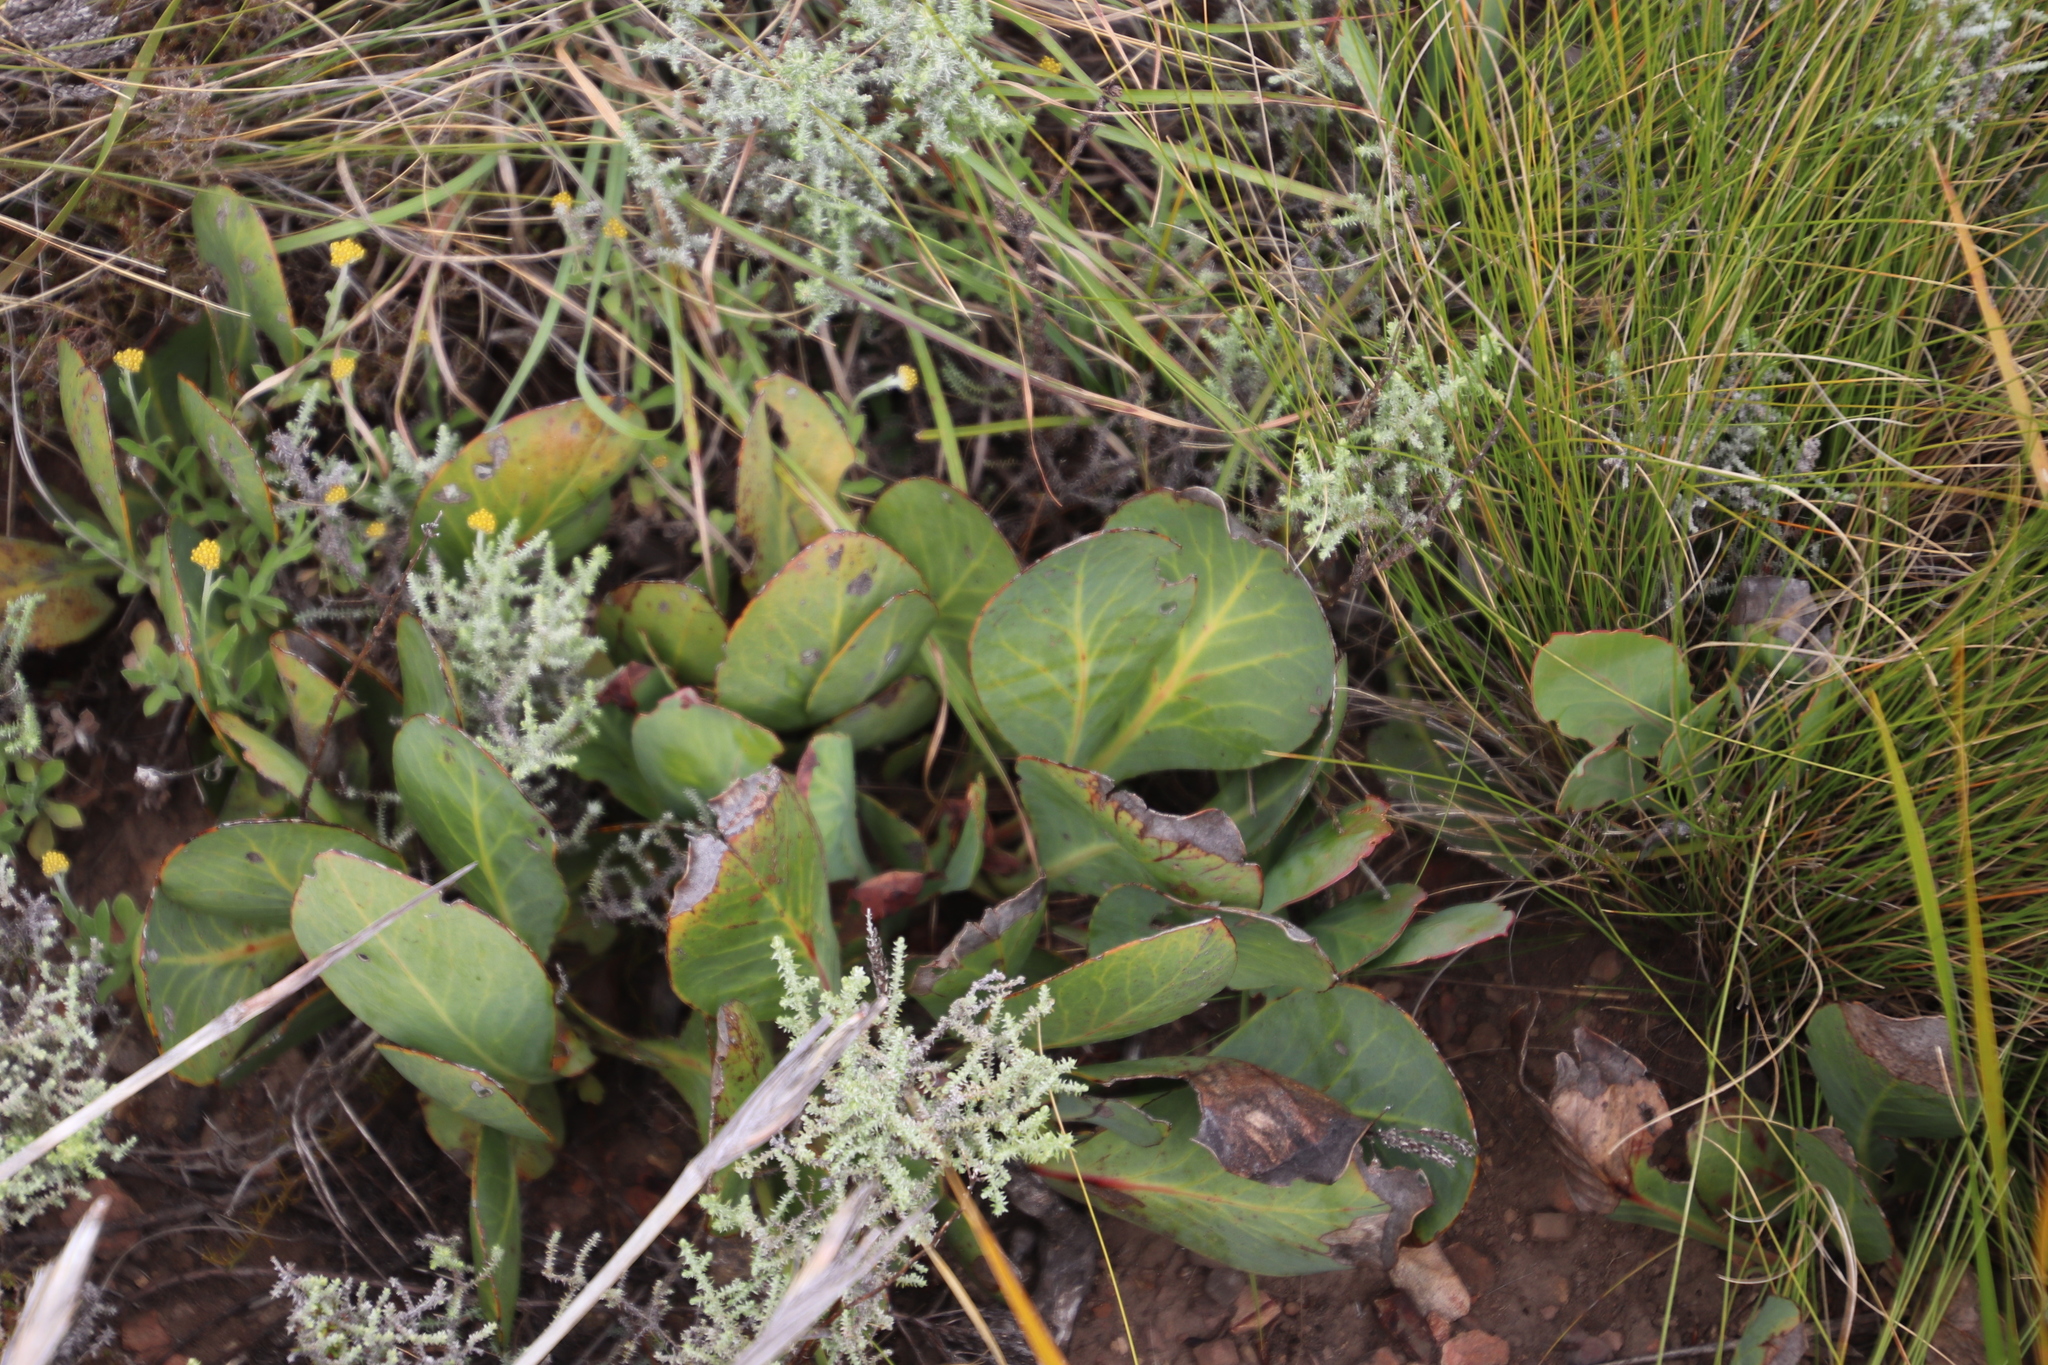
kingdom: Plantae
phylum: Tracheophyta
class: Magnoliopsida
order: Proteales
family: Proteaceae
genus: Protea
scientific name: Protea acaulos
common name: Common ground sugarbush
